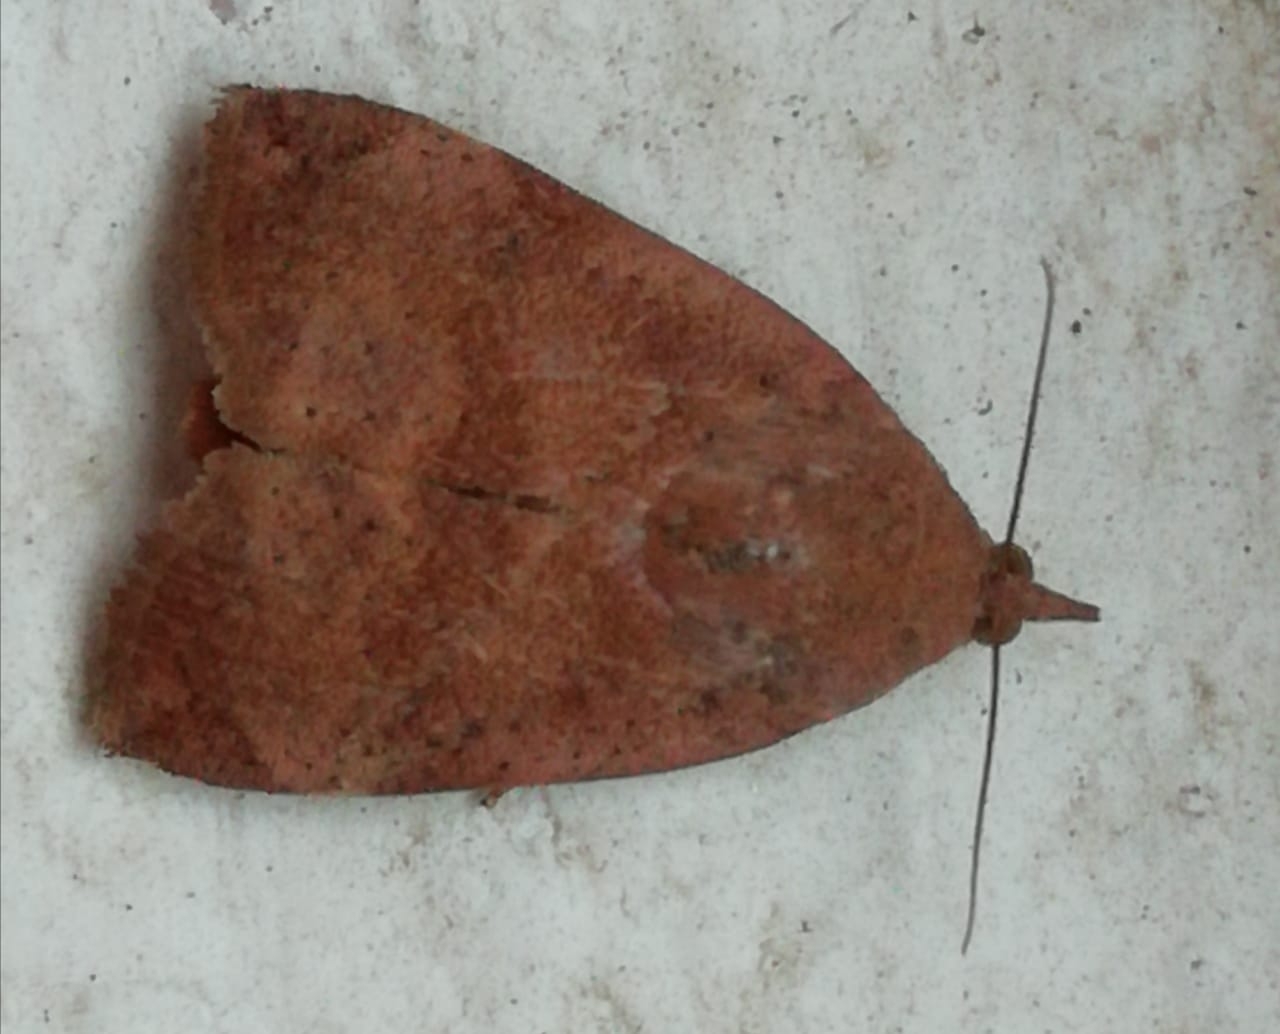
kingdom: Animalia
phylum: Arthropoda
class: Insecta
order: Lepidoptera
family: Hyblaeidae
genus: Hyblaea
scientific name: Hyblaea puera
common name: Teak defoliator moth
